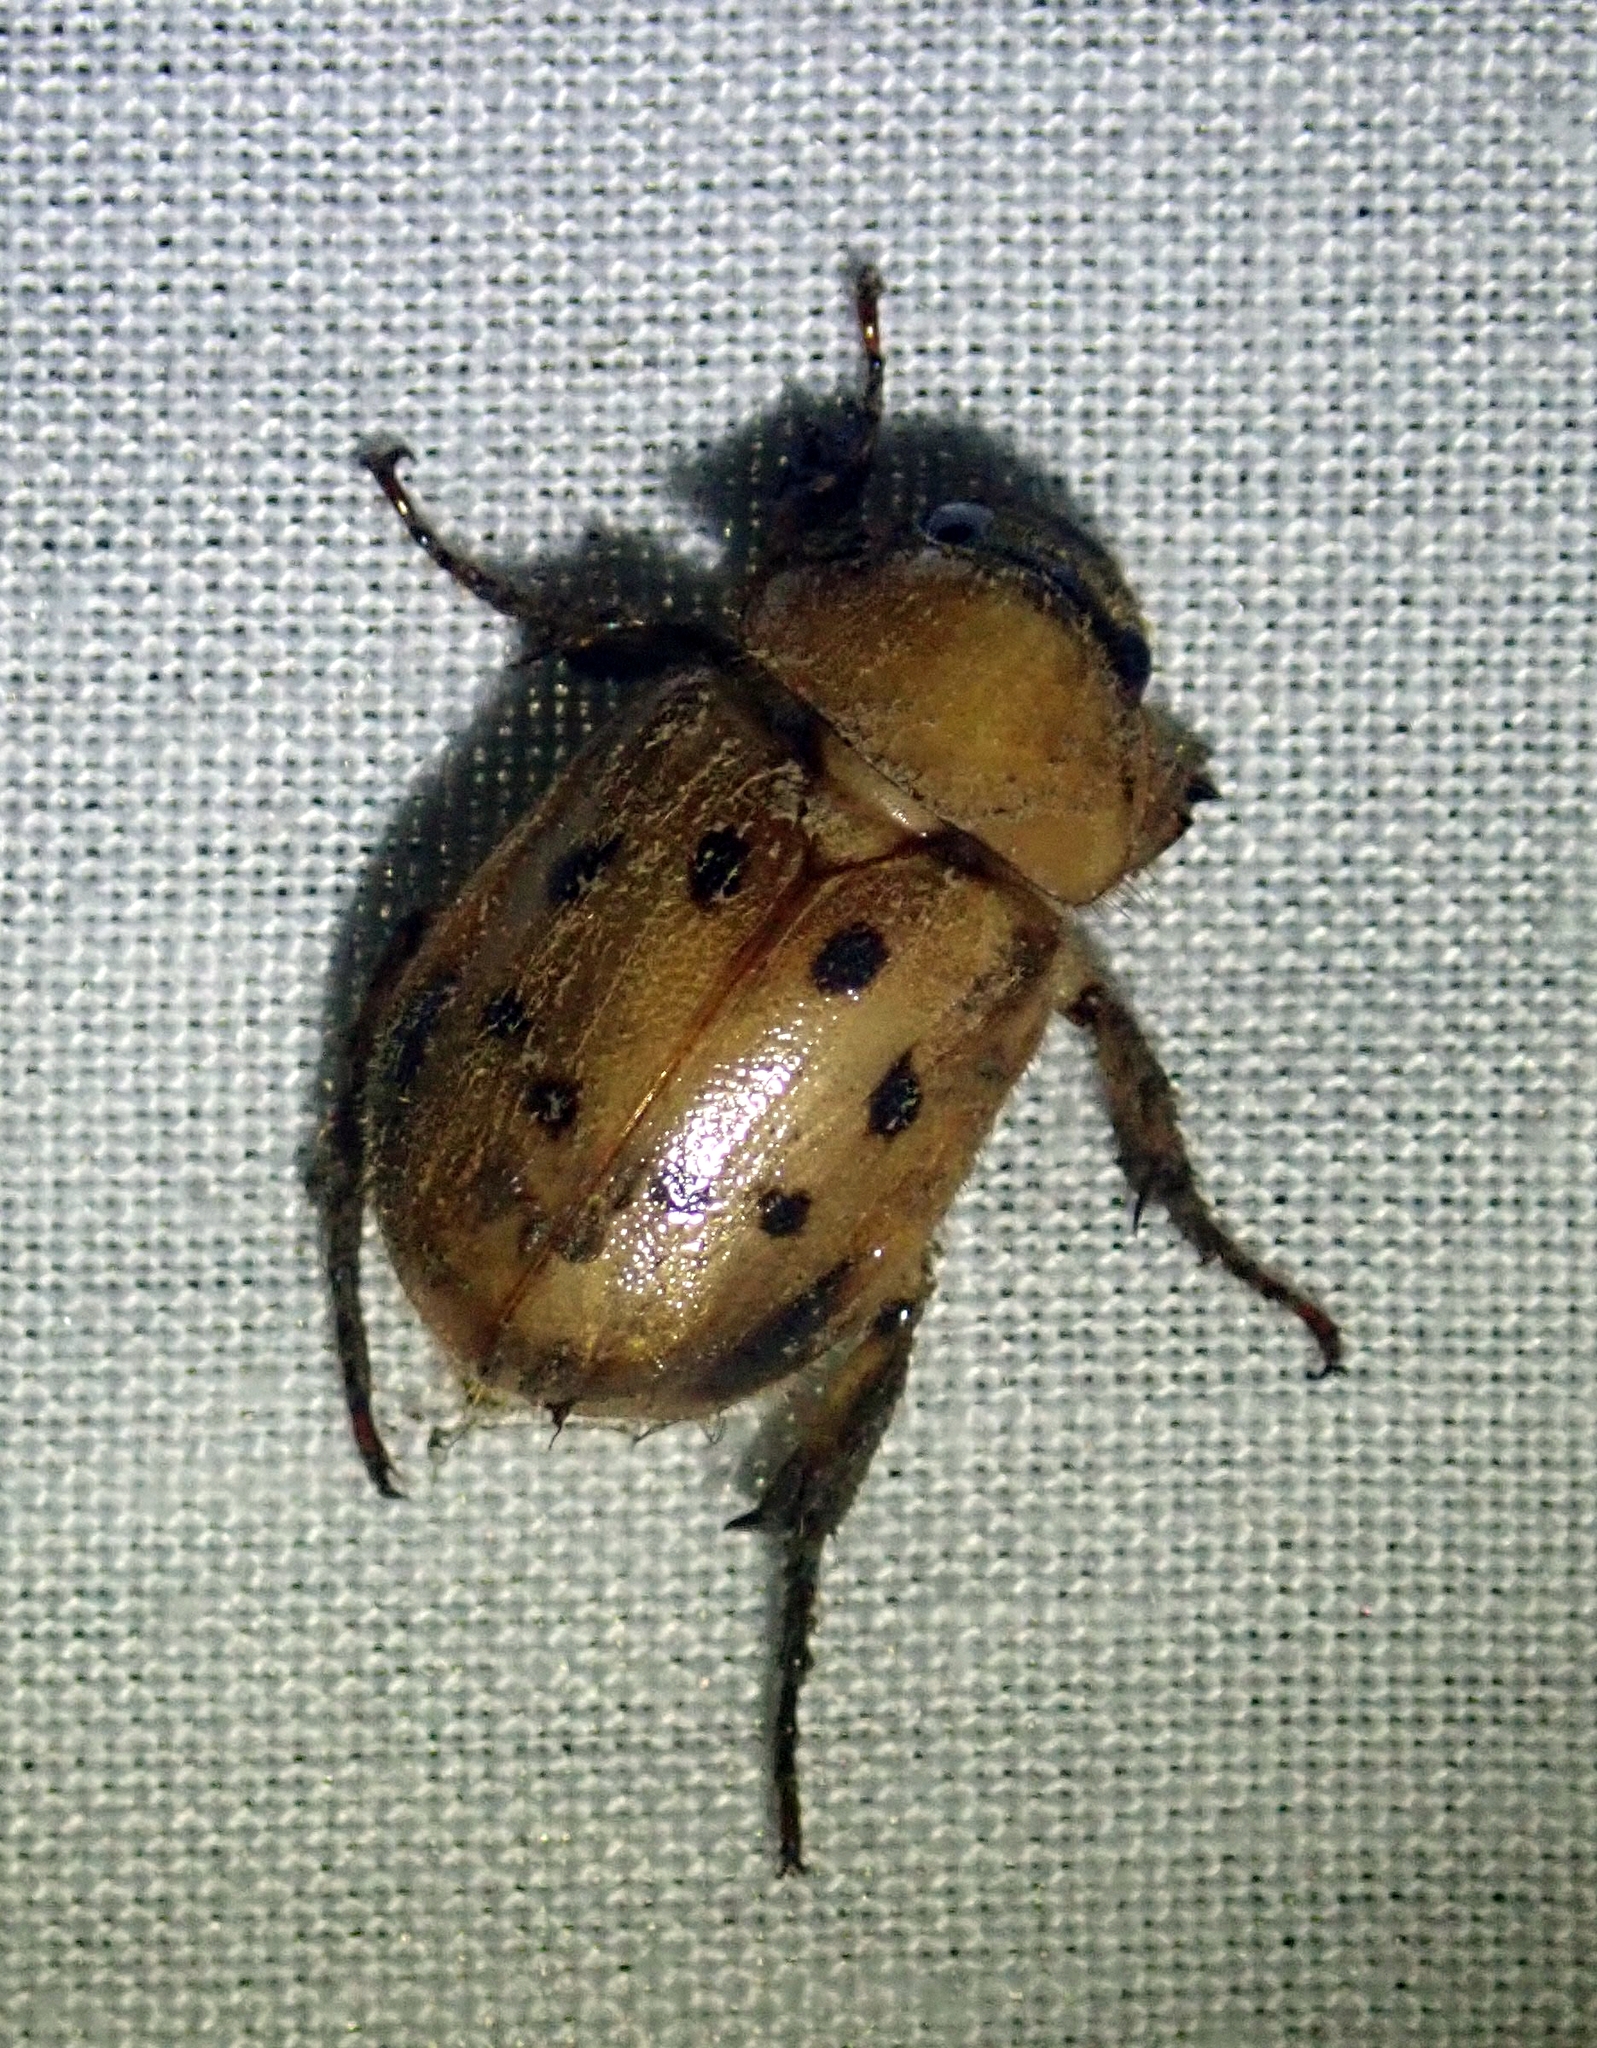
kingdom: Animalia
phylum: Arthropoda
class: Insecta
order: Coleoptera
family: Scarabaeidae
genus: Cyclocephala
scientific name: Cyclocephala brittoni
